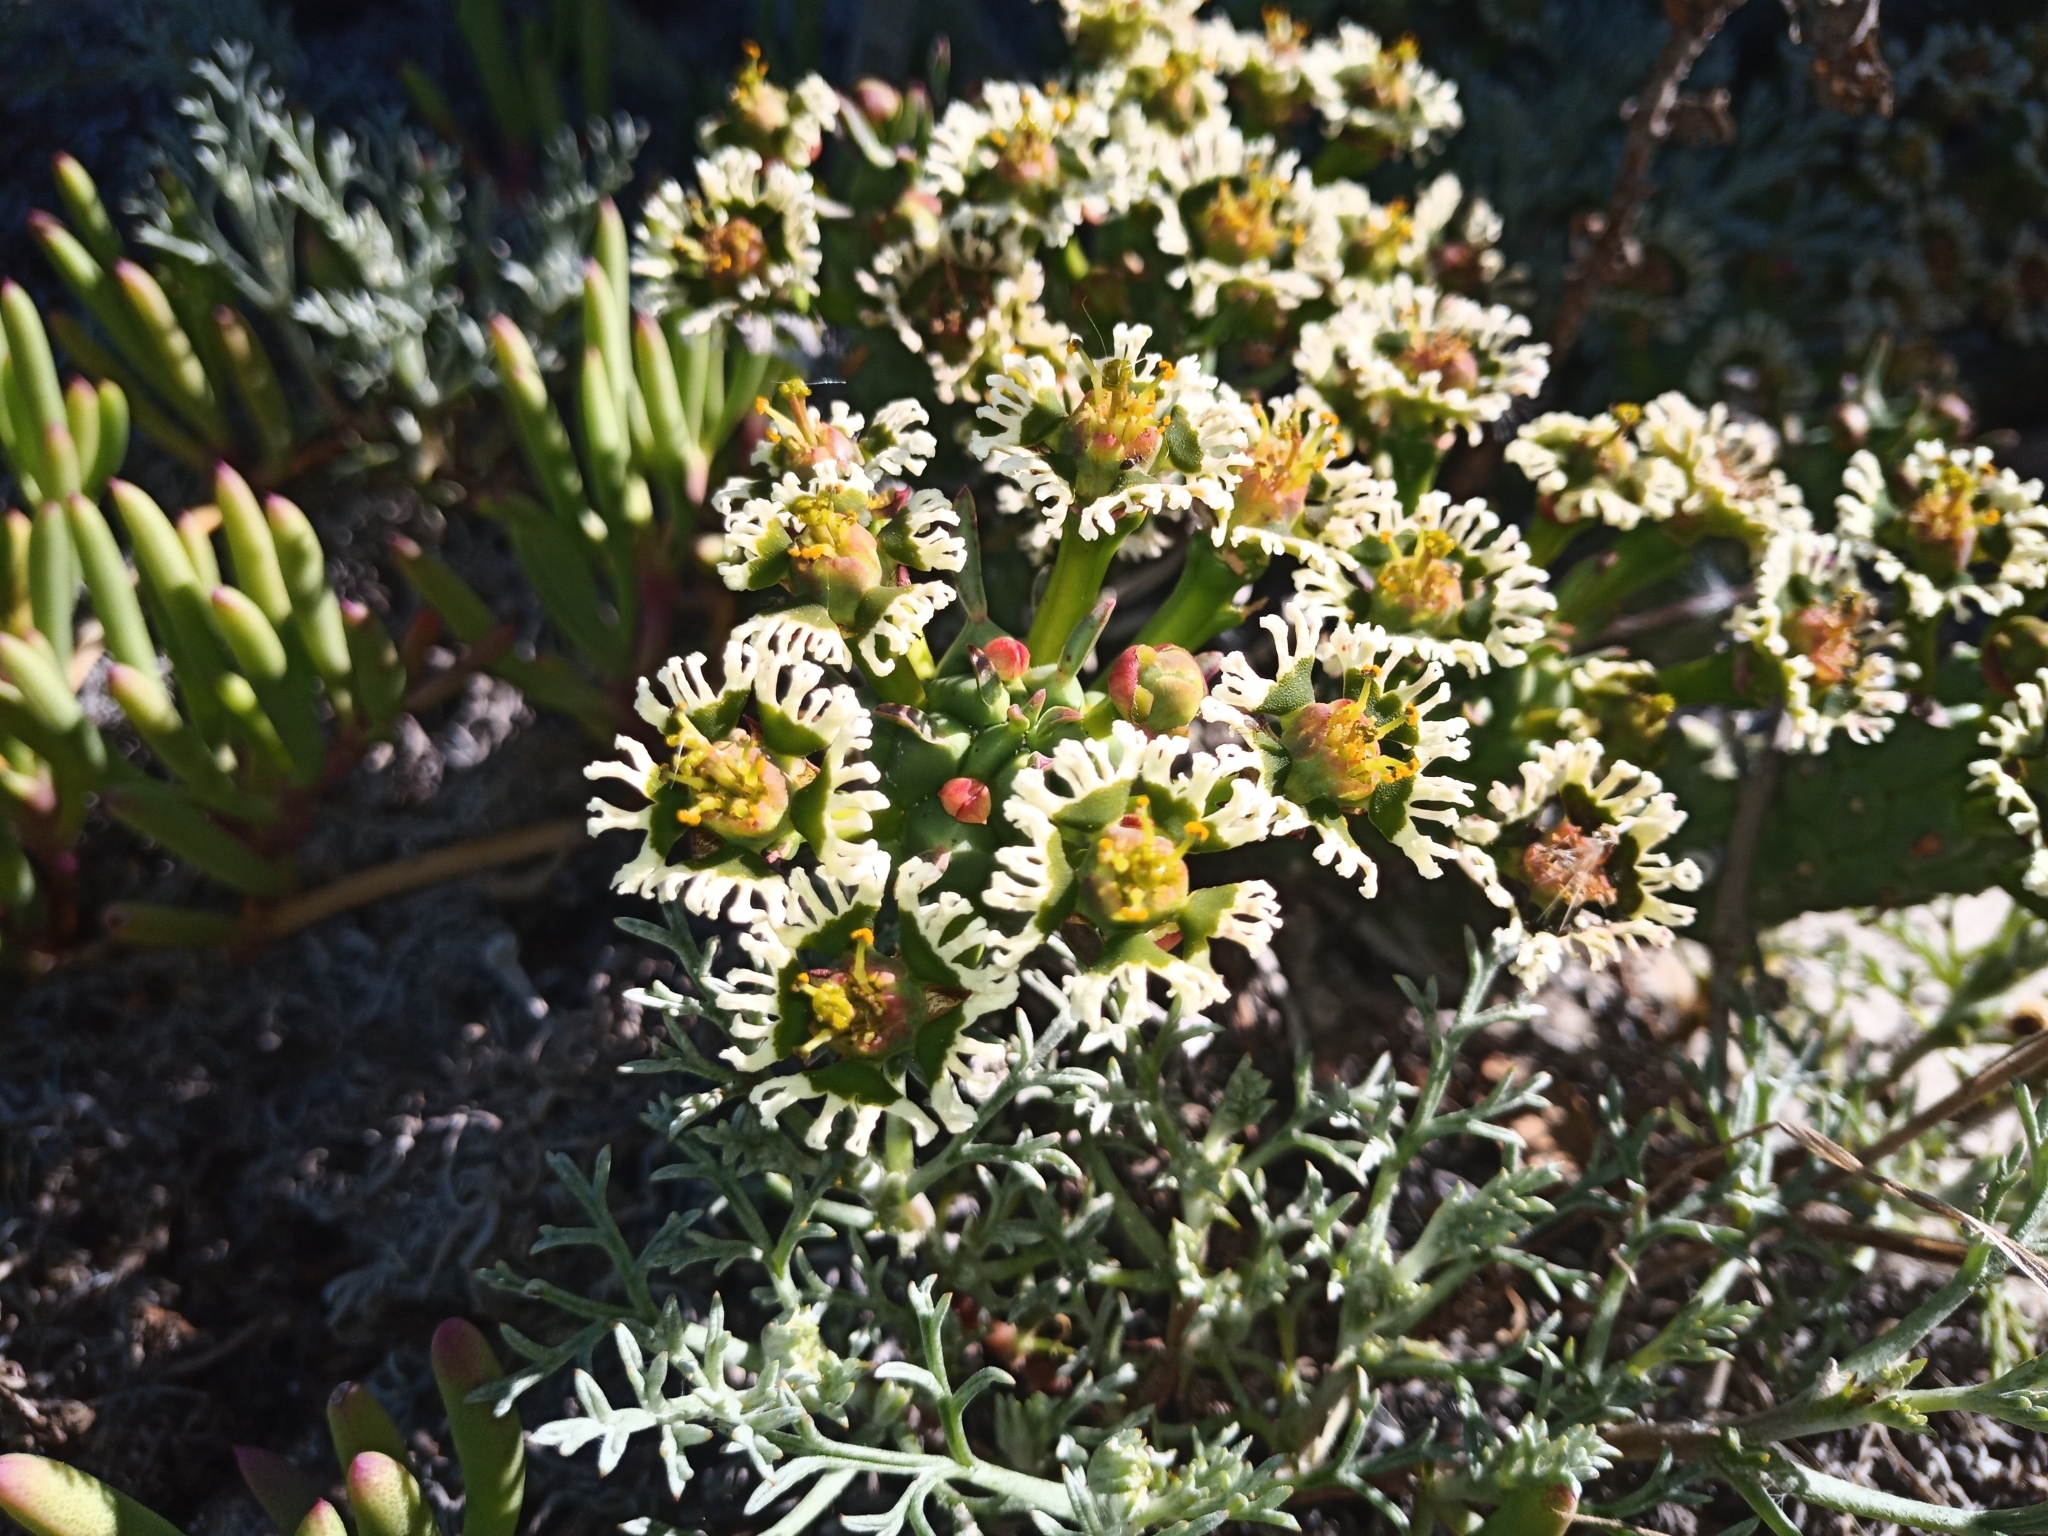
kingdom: Plantae
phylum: Tracheophyta
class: Magnoliopsida
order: Malpighiales
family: Euphorbiaceae
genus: Euphorbia
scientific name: Euphorbia caput-medusae
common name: Medusa's-head
